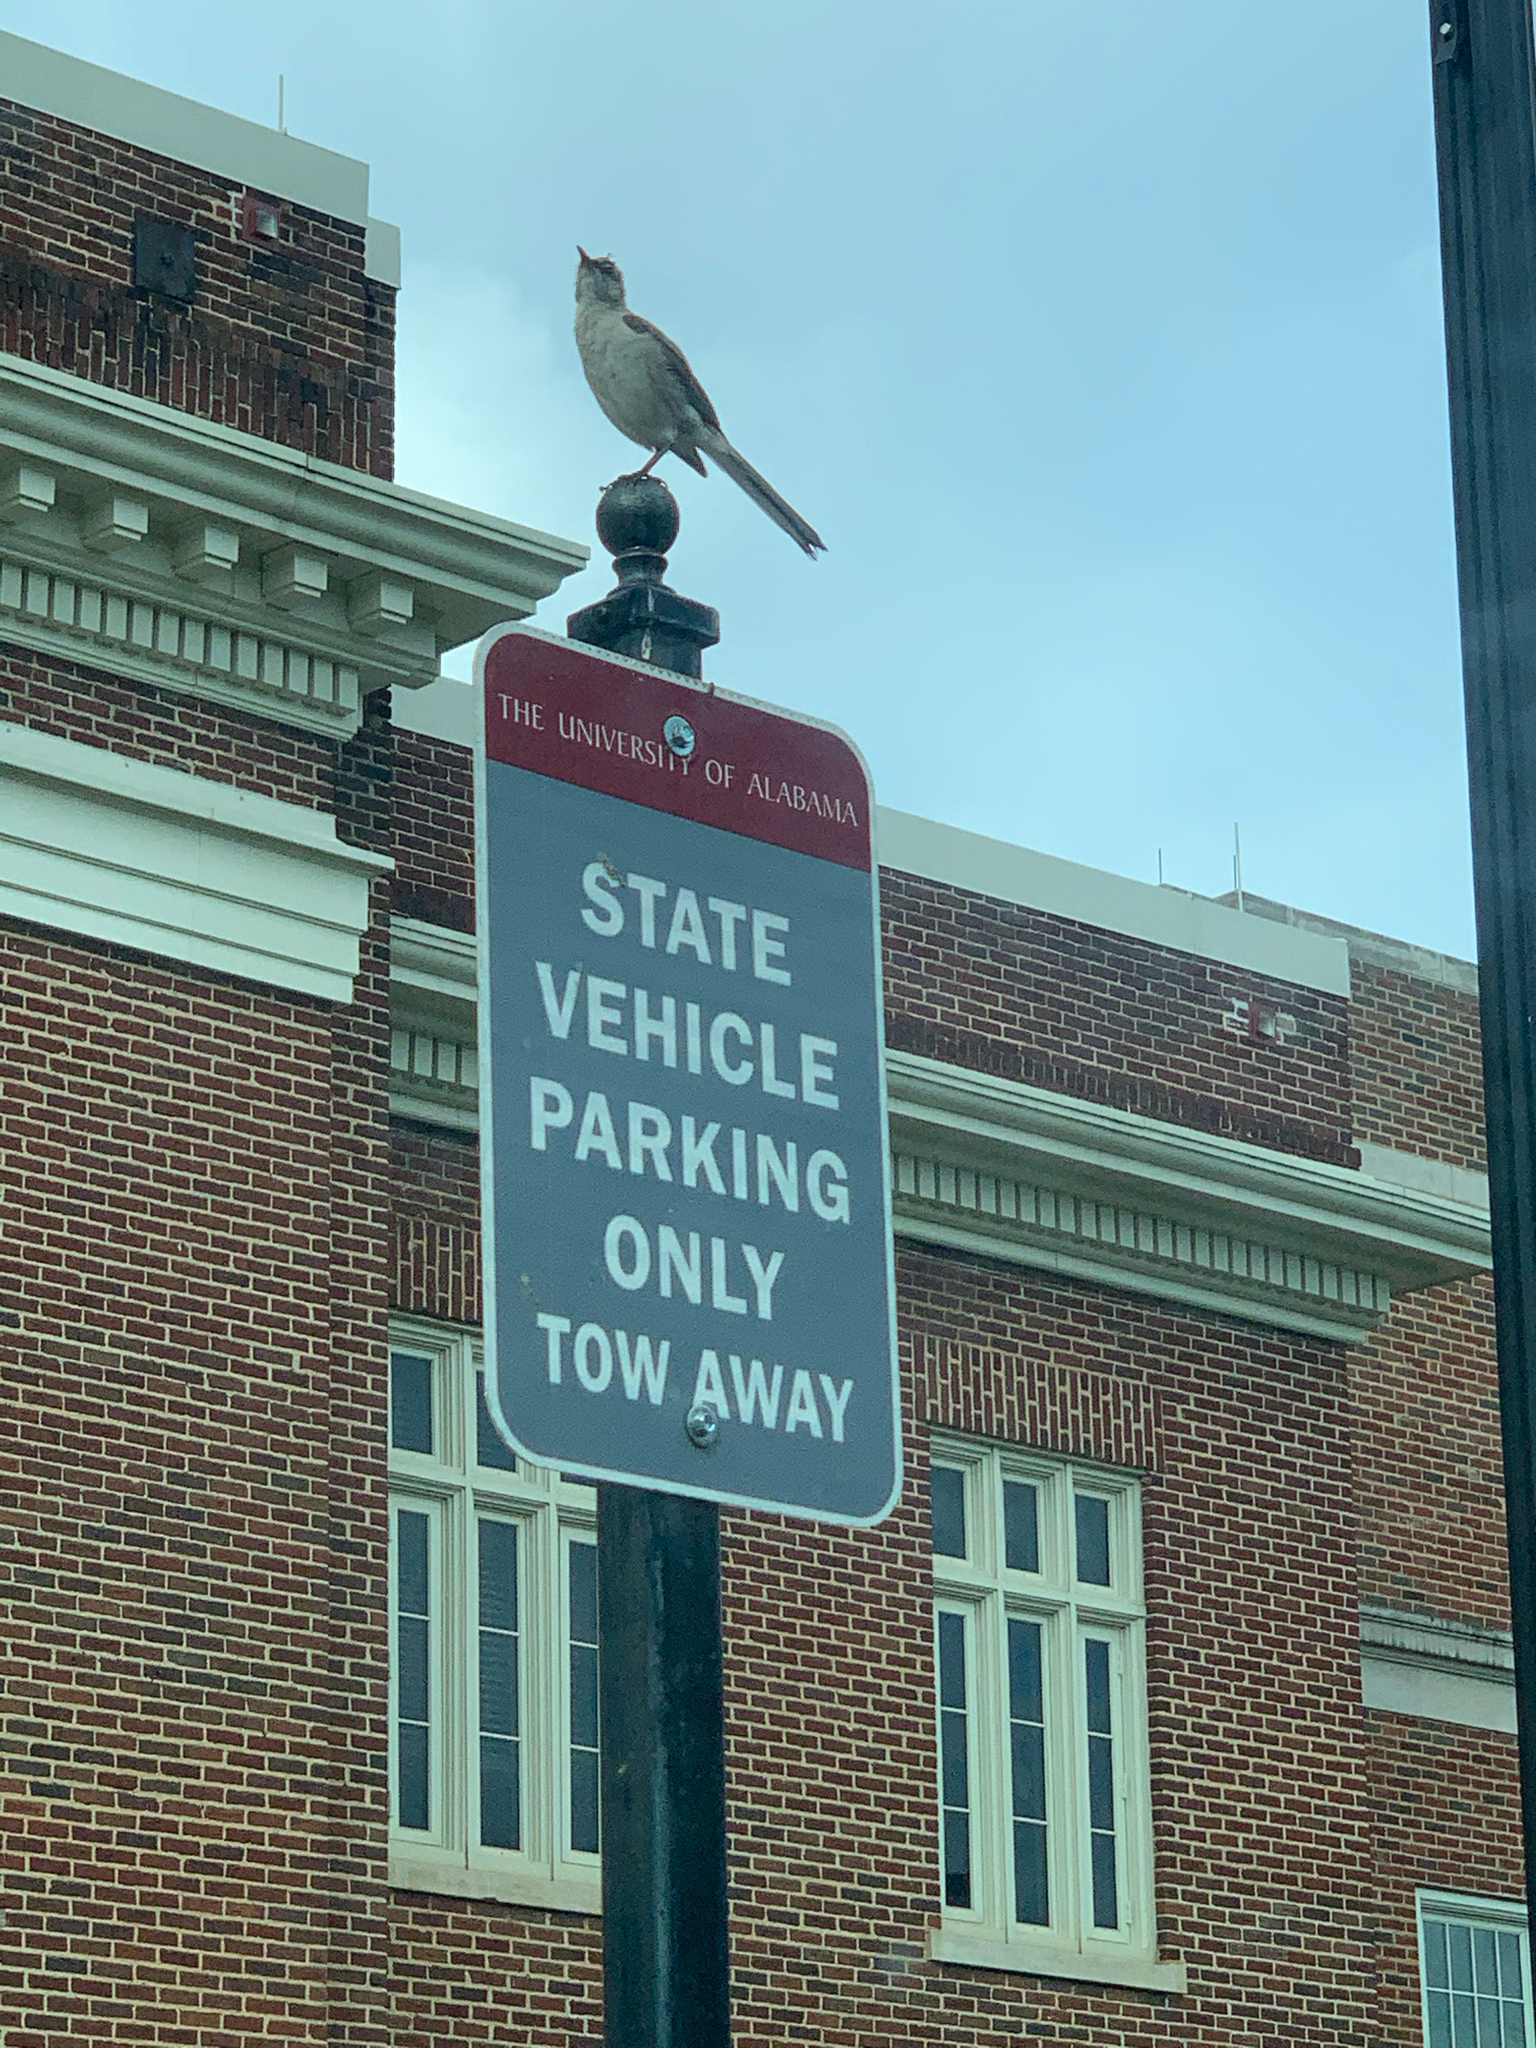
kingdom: Animalia
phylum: Chordata
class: Aves
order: Passeriformes
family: Mimidae
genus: Mimus
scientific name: Mimus polyglottos
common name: Northern mockingbird
